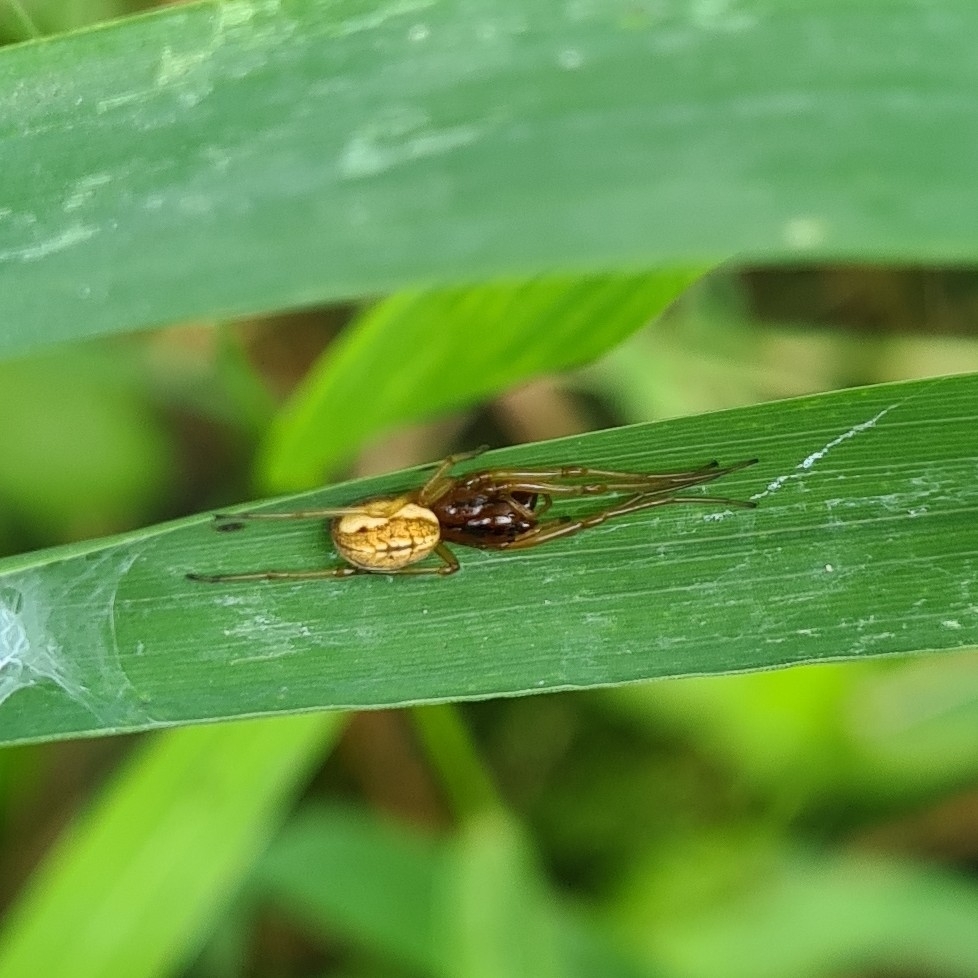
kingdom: Animalia
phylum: Arthropoda
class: Arachnida
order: Araneae
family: Tetragnathidae
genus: Pachygnatha
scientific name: Pachygnatha clercki
